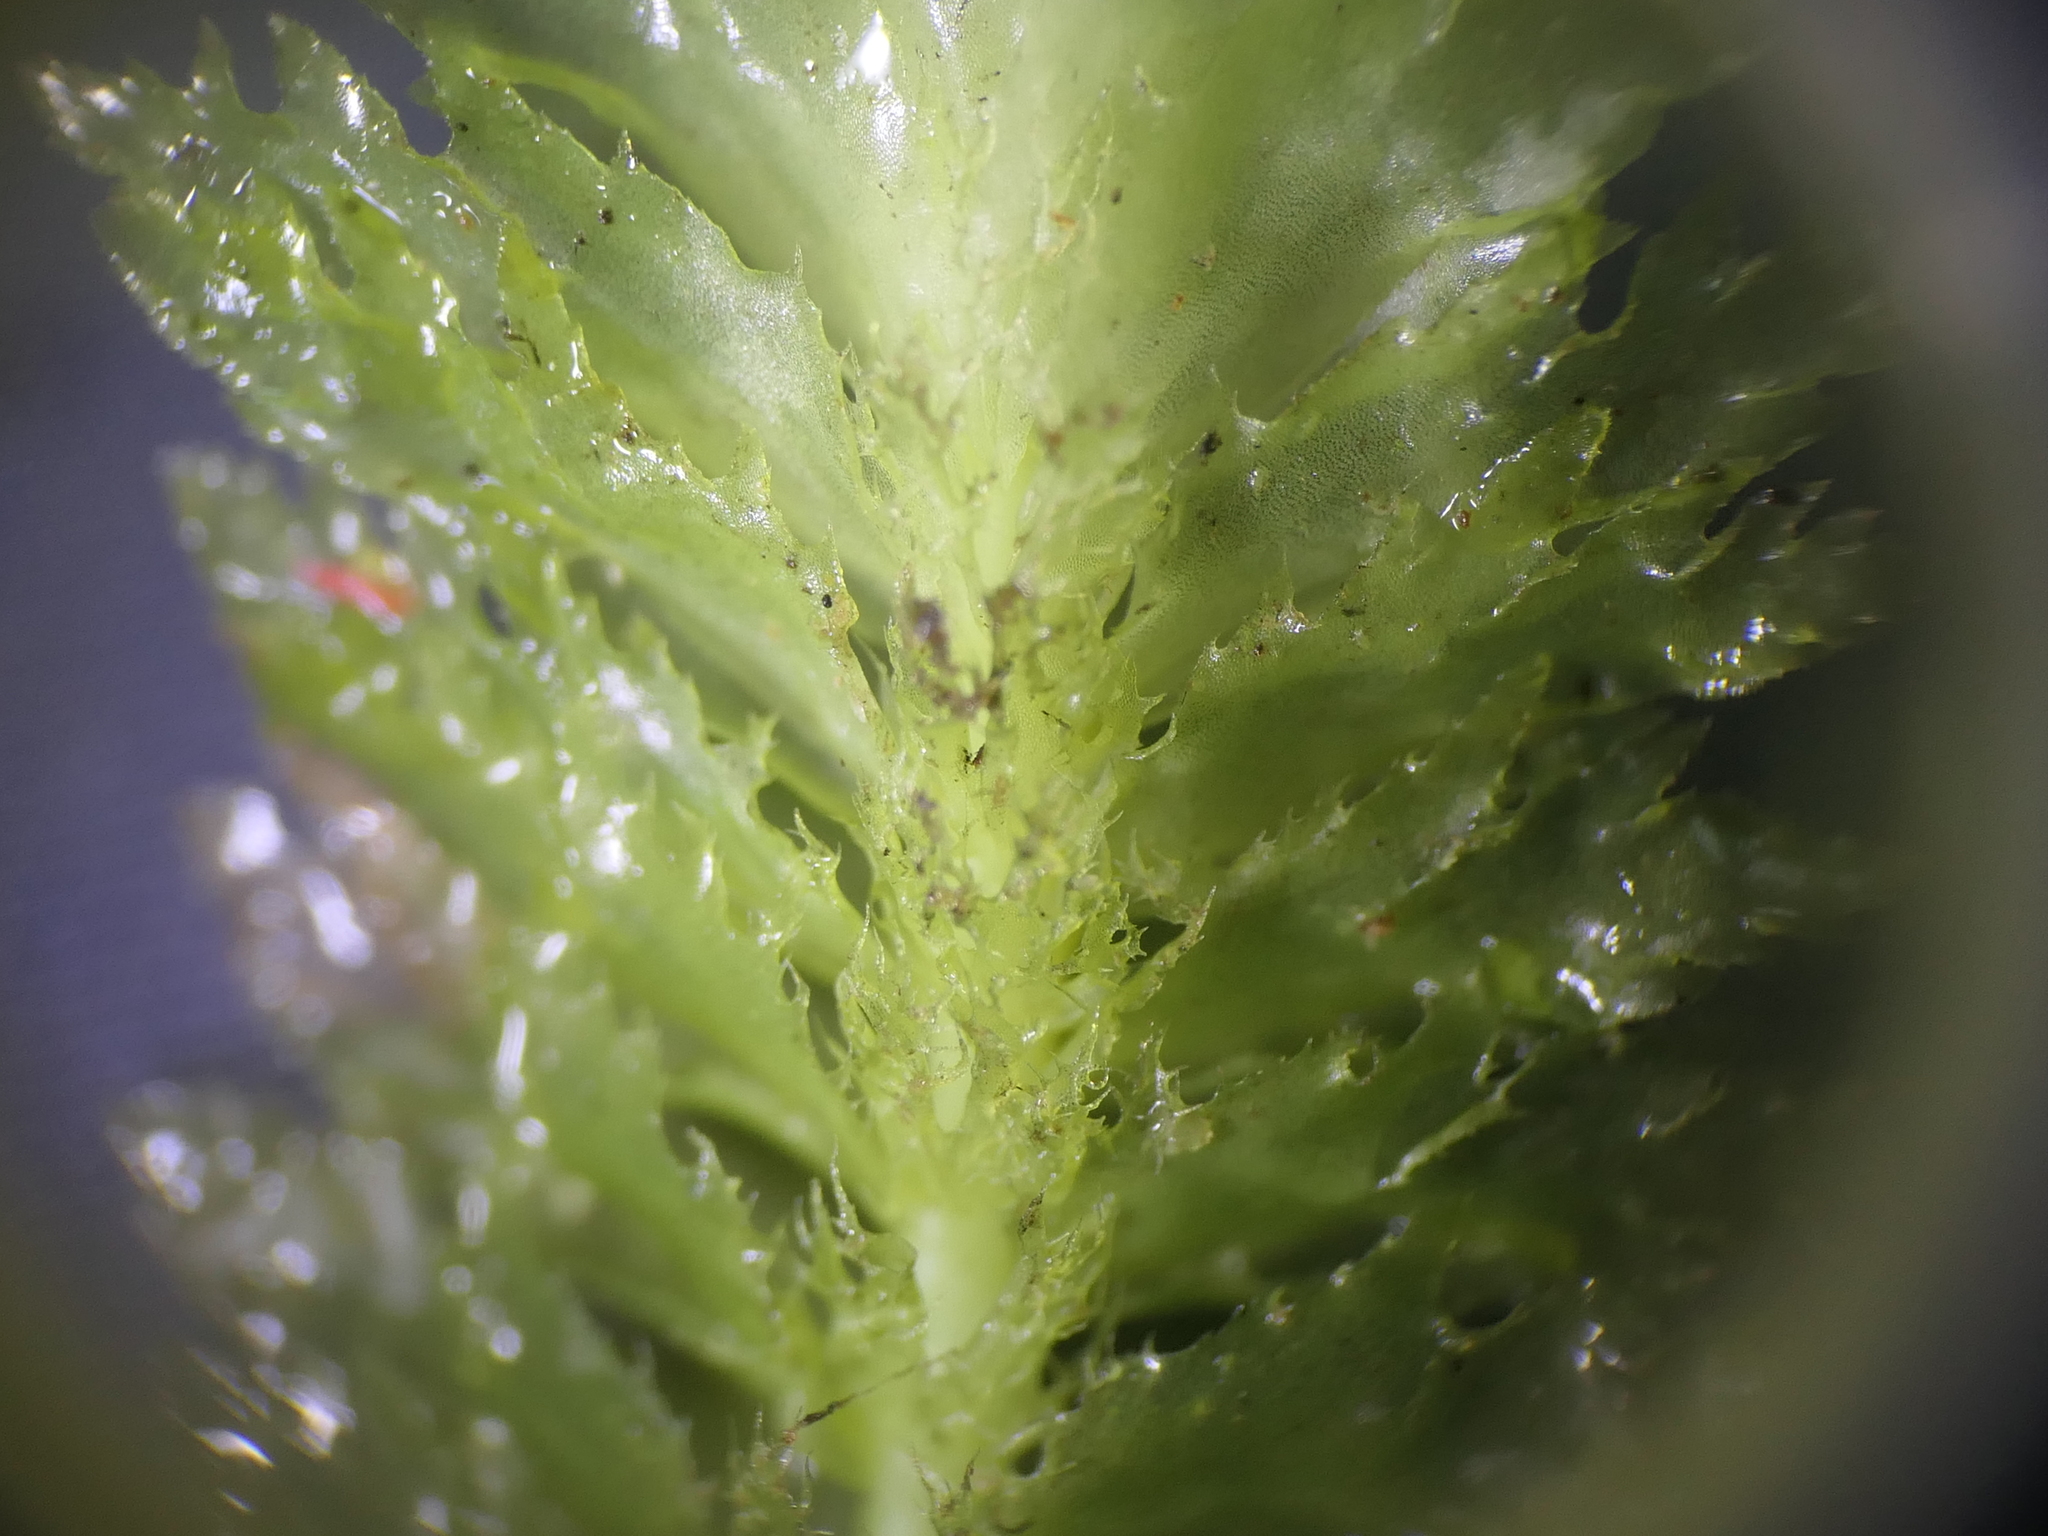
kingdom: Plantae
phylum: Marchantiophyta
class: Jungermanniopsida
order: Jungermanniales
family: Schistochilaceae
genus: Schistochila
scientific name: Schistochila appendiculata
